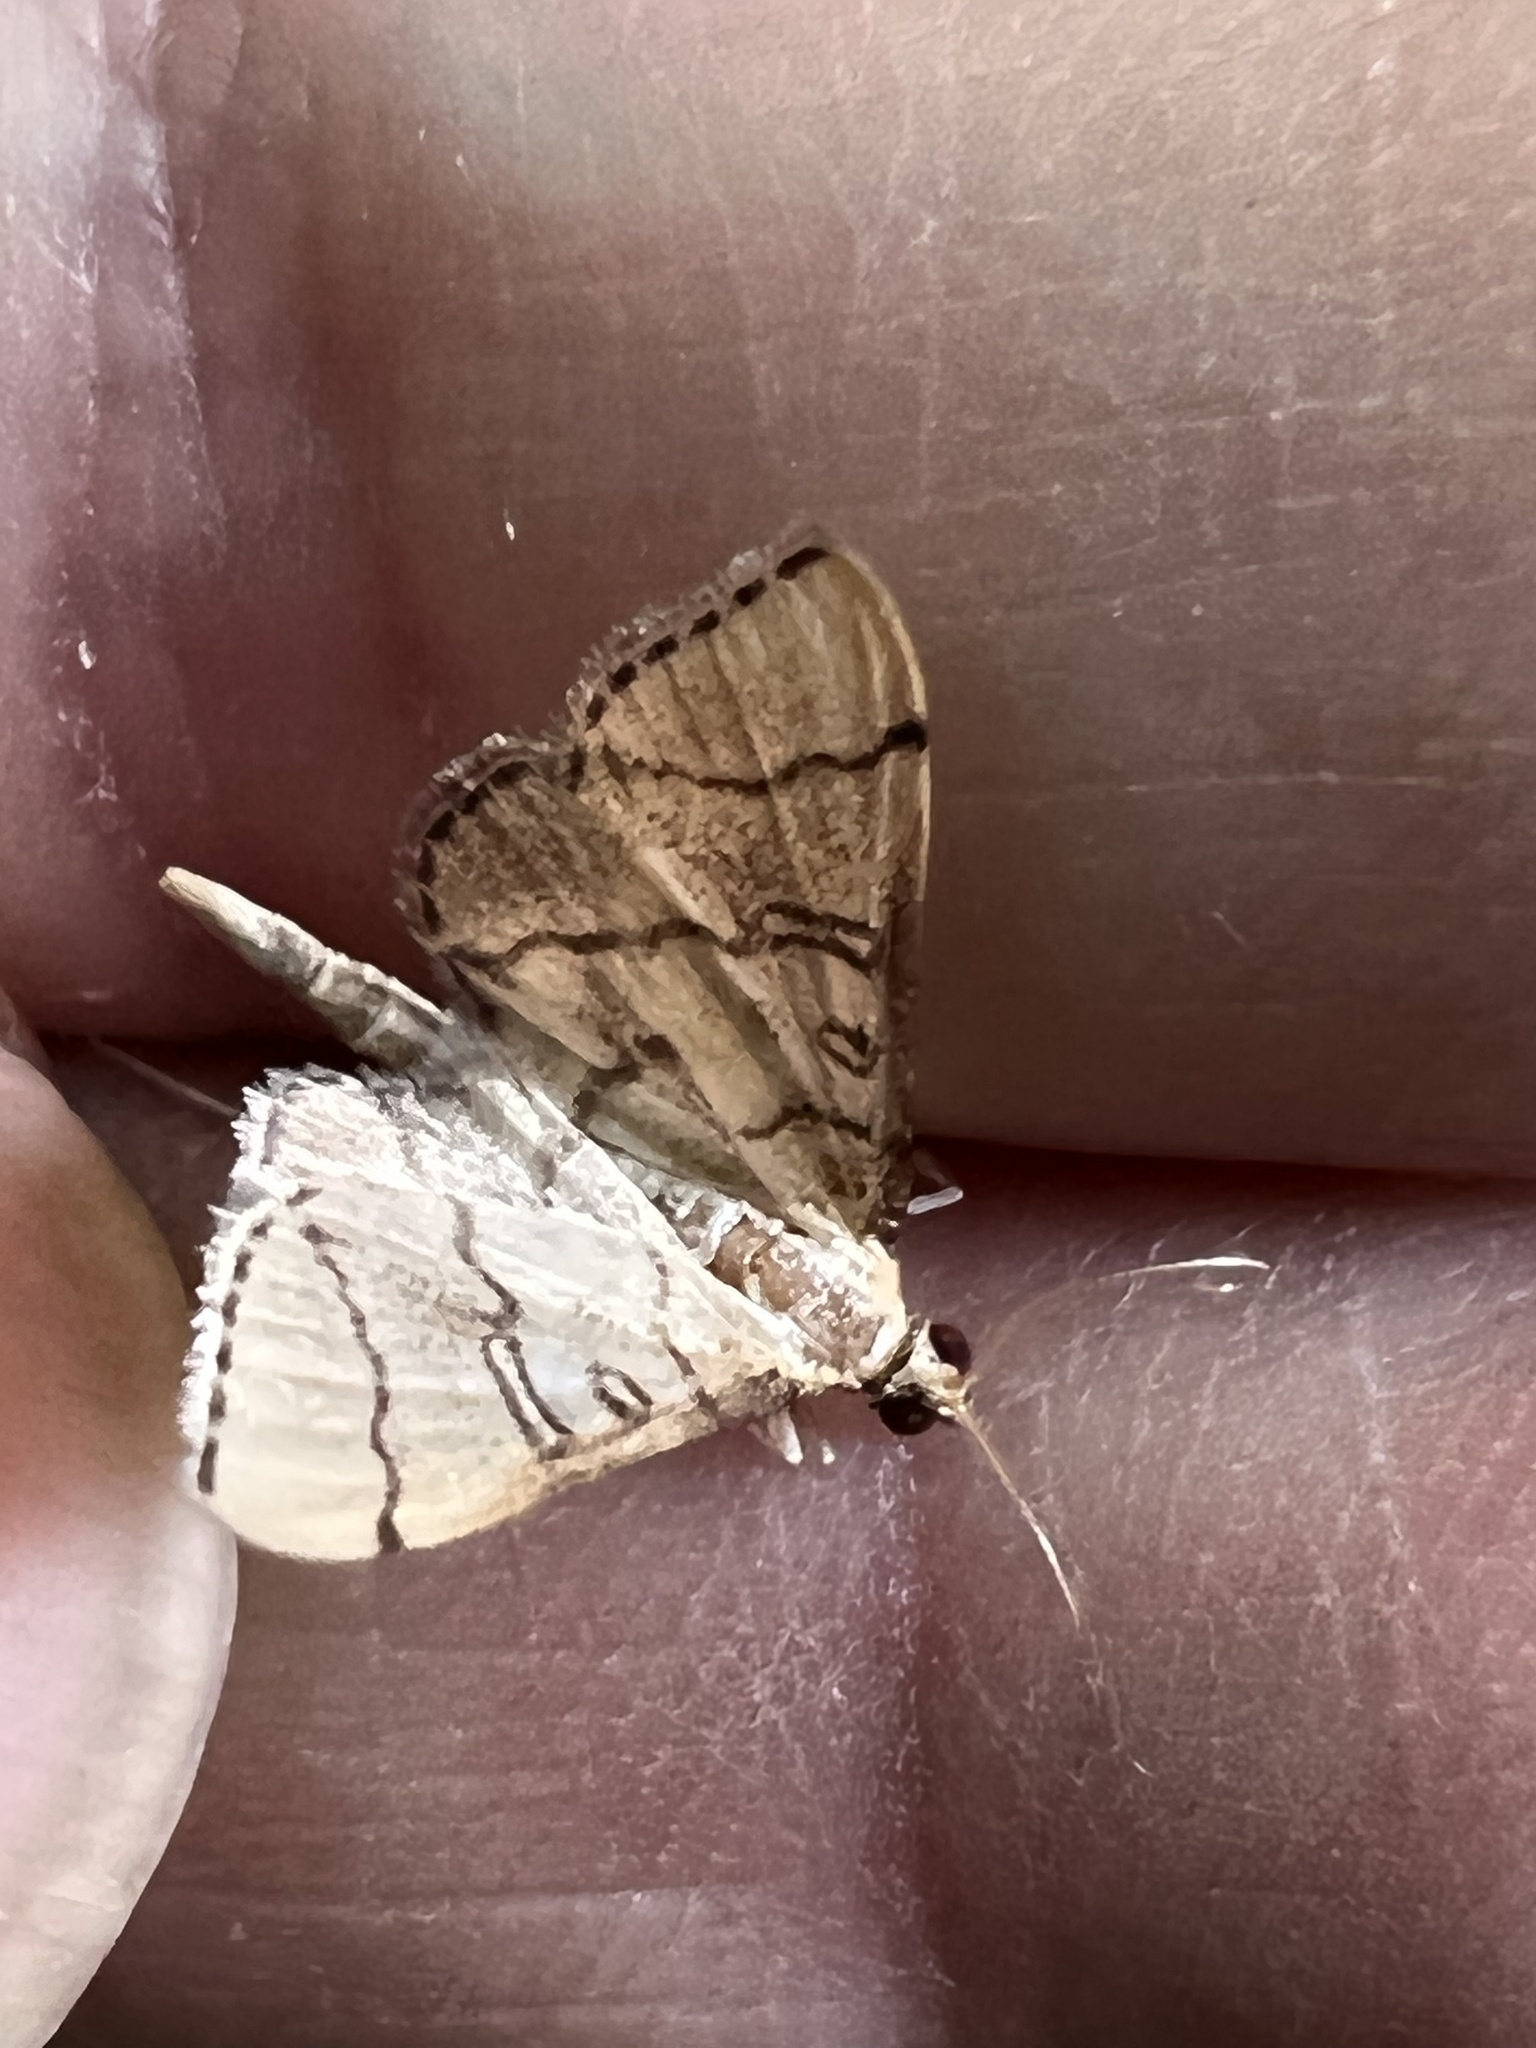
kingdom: Animalia
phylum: Arthropoda
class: Insecta
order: Lepidoptera
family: Crambidae
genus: Lamprosema
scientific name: Lamprosema Blepharomastix ranalis
